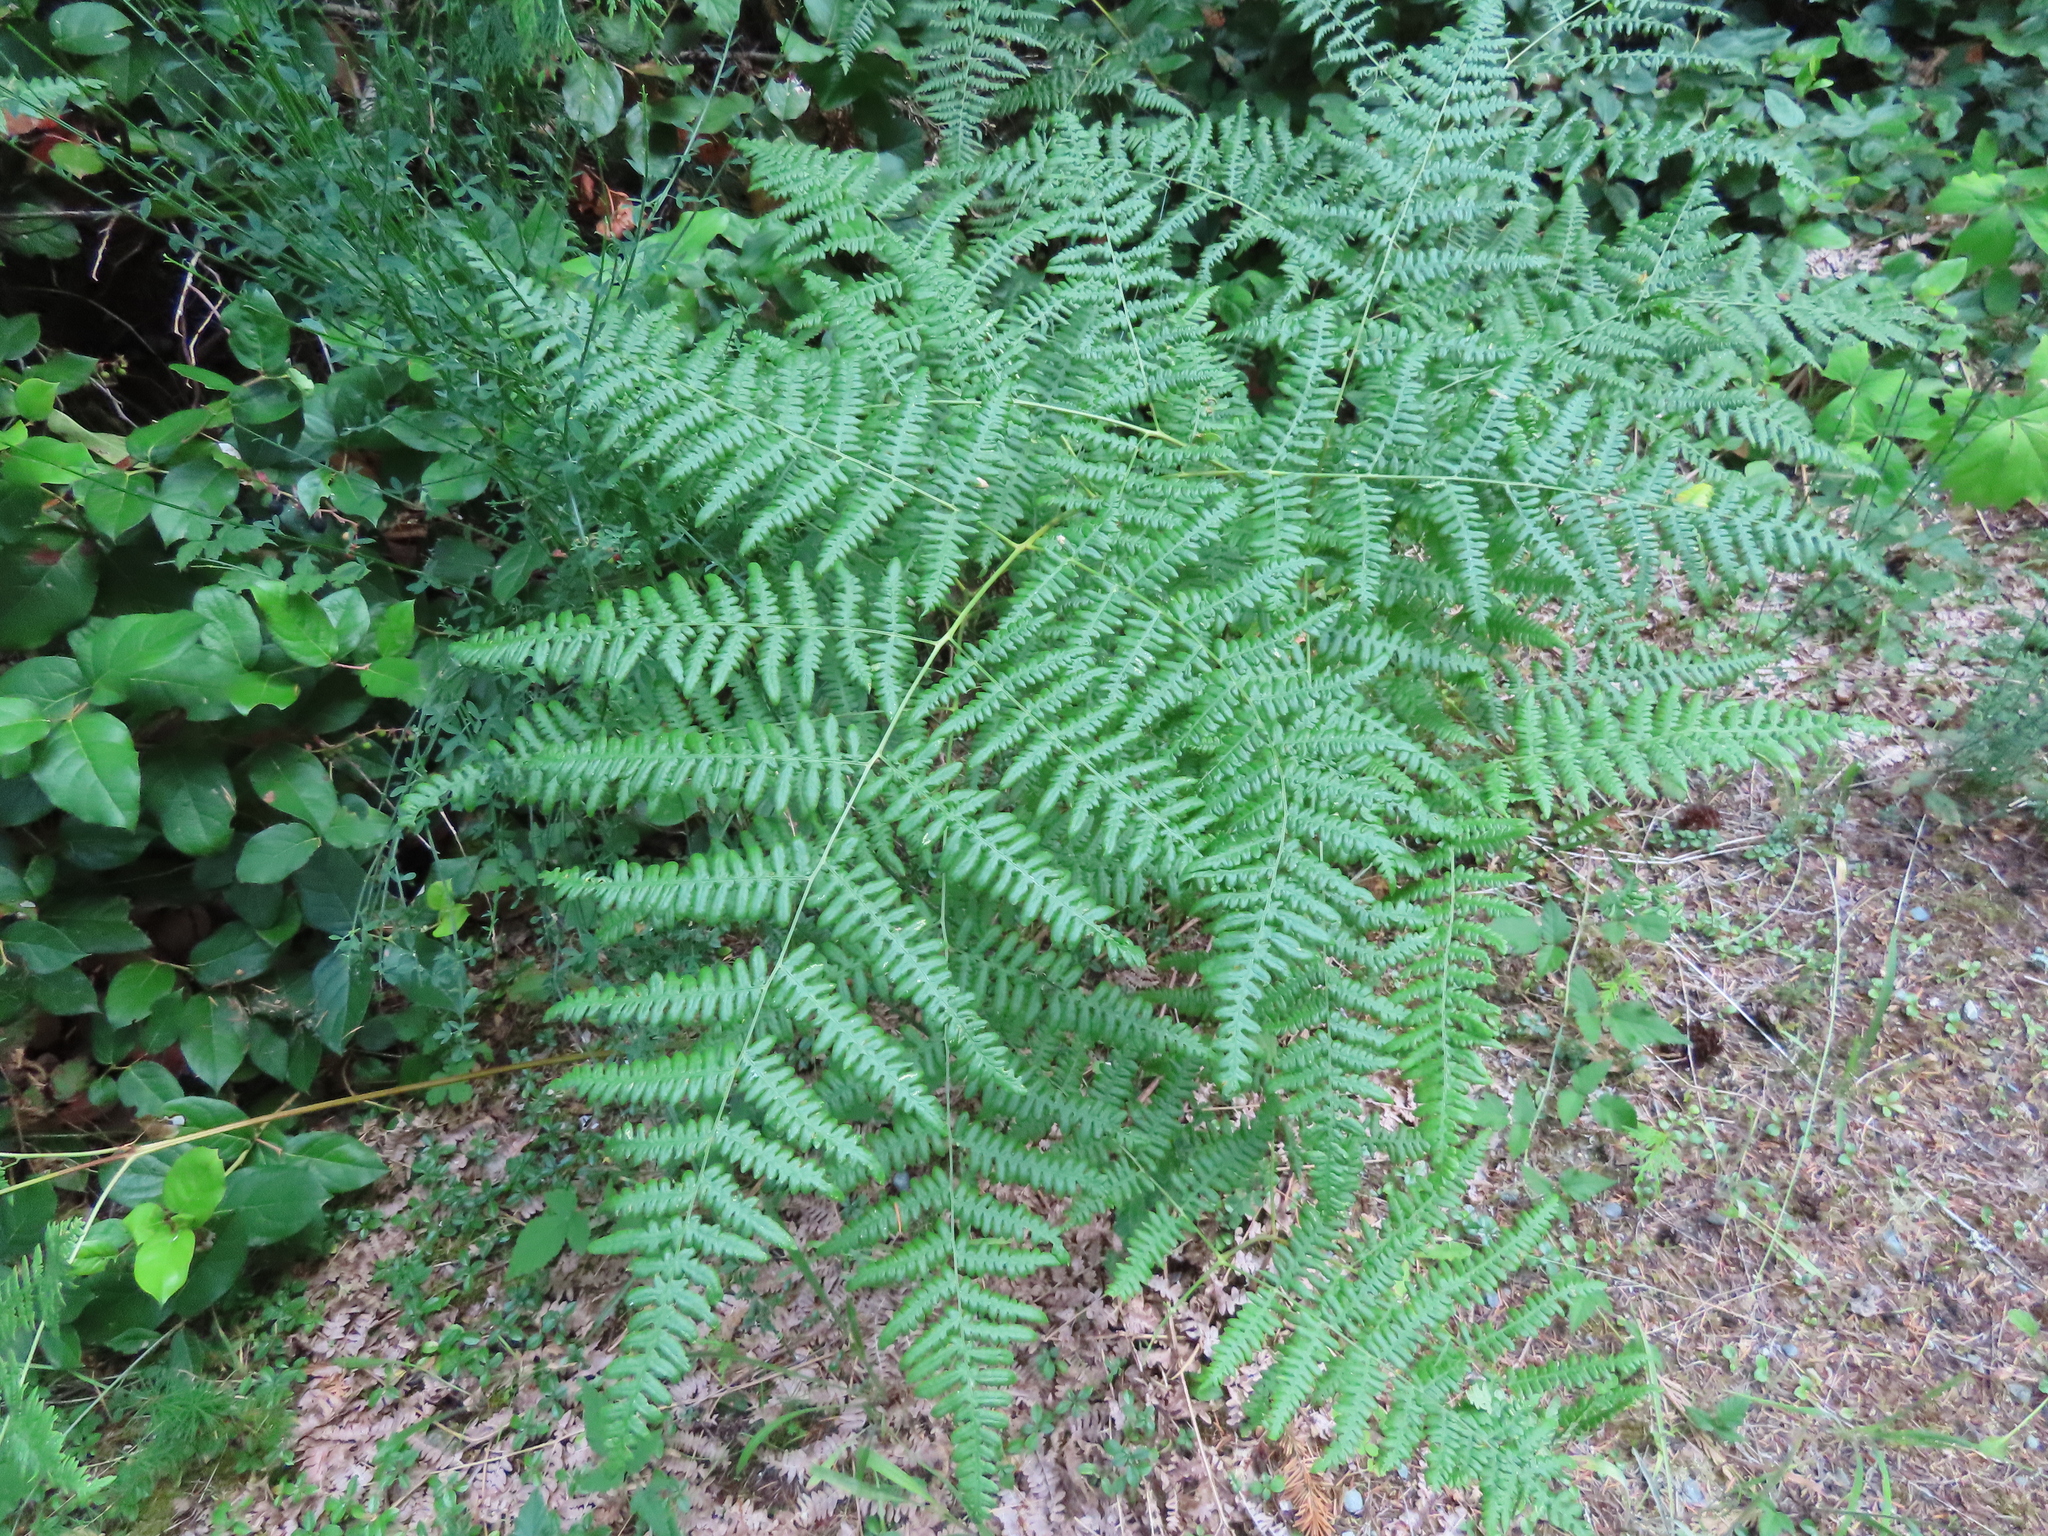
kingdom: Plantae
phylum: Tracheophyta
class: Polypodiopsida
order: Polypodiales
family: Dennstaedtiaceae
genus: Pteridium
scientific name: Pteridium aquilinum
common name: Bracken
